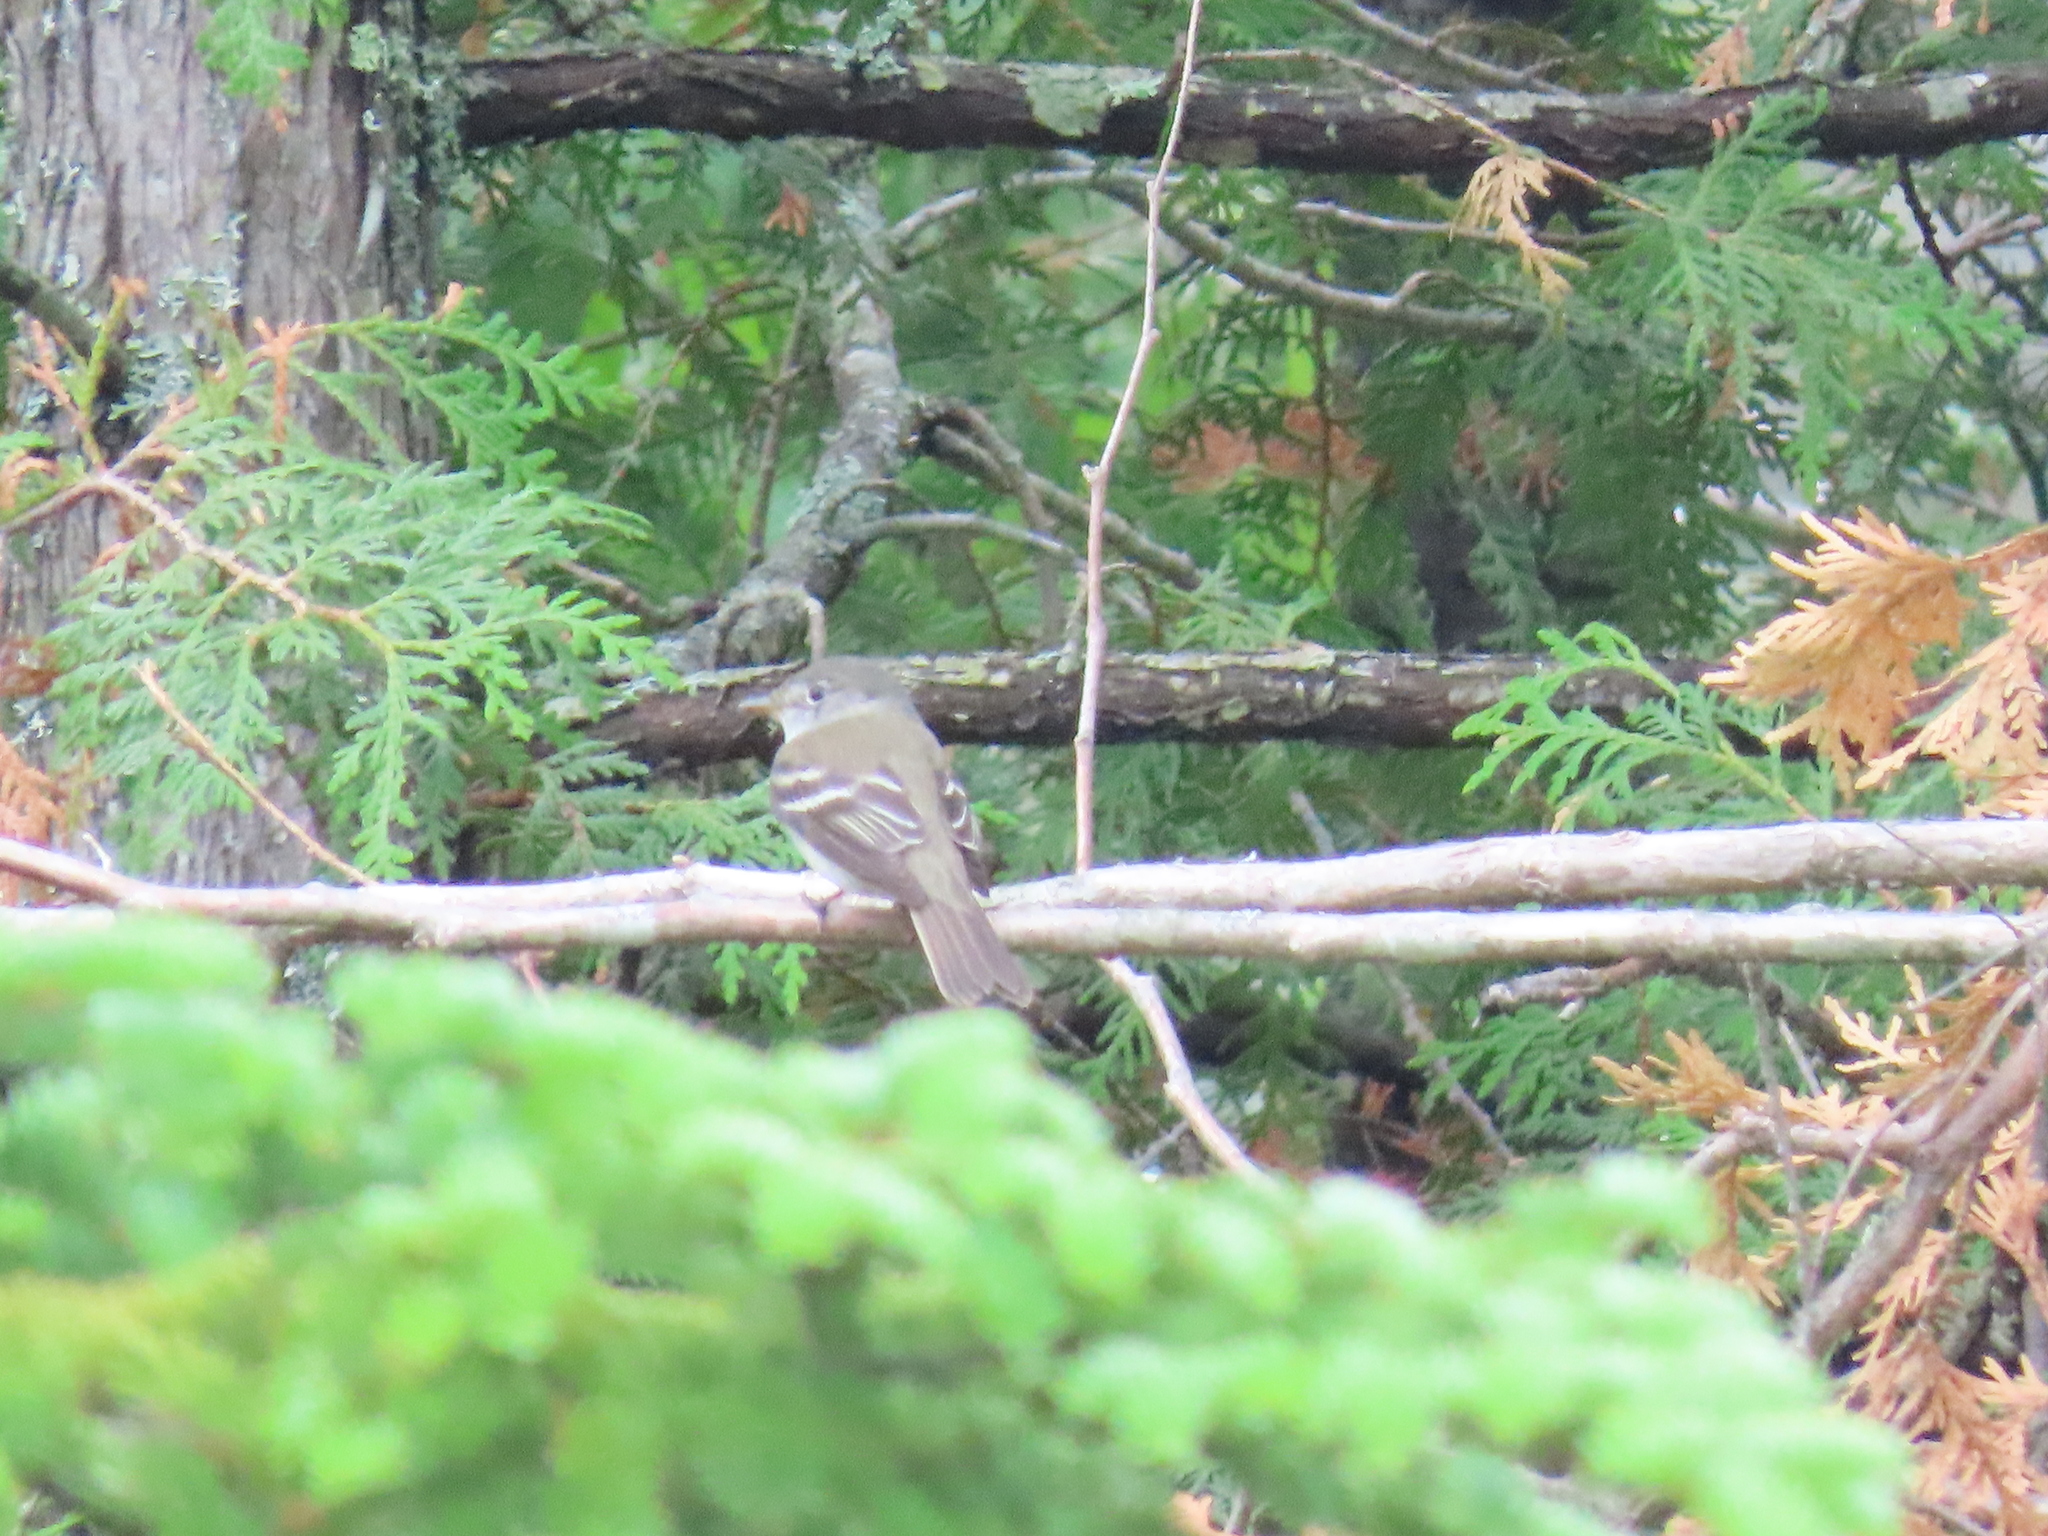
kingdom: Animalia
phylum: Chordata
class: Aves
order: Passeriformes
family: Tyrannidae
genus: Empidonax
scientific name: Empidonax alnorum
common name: Alder flycatcher
